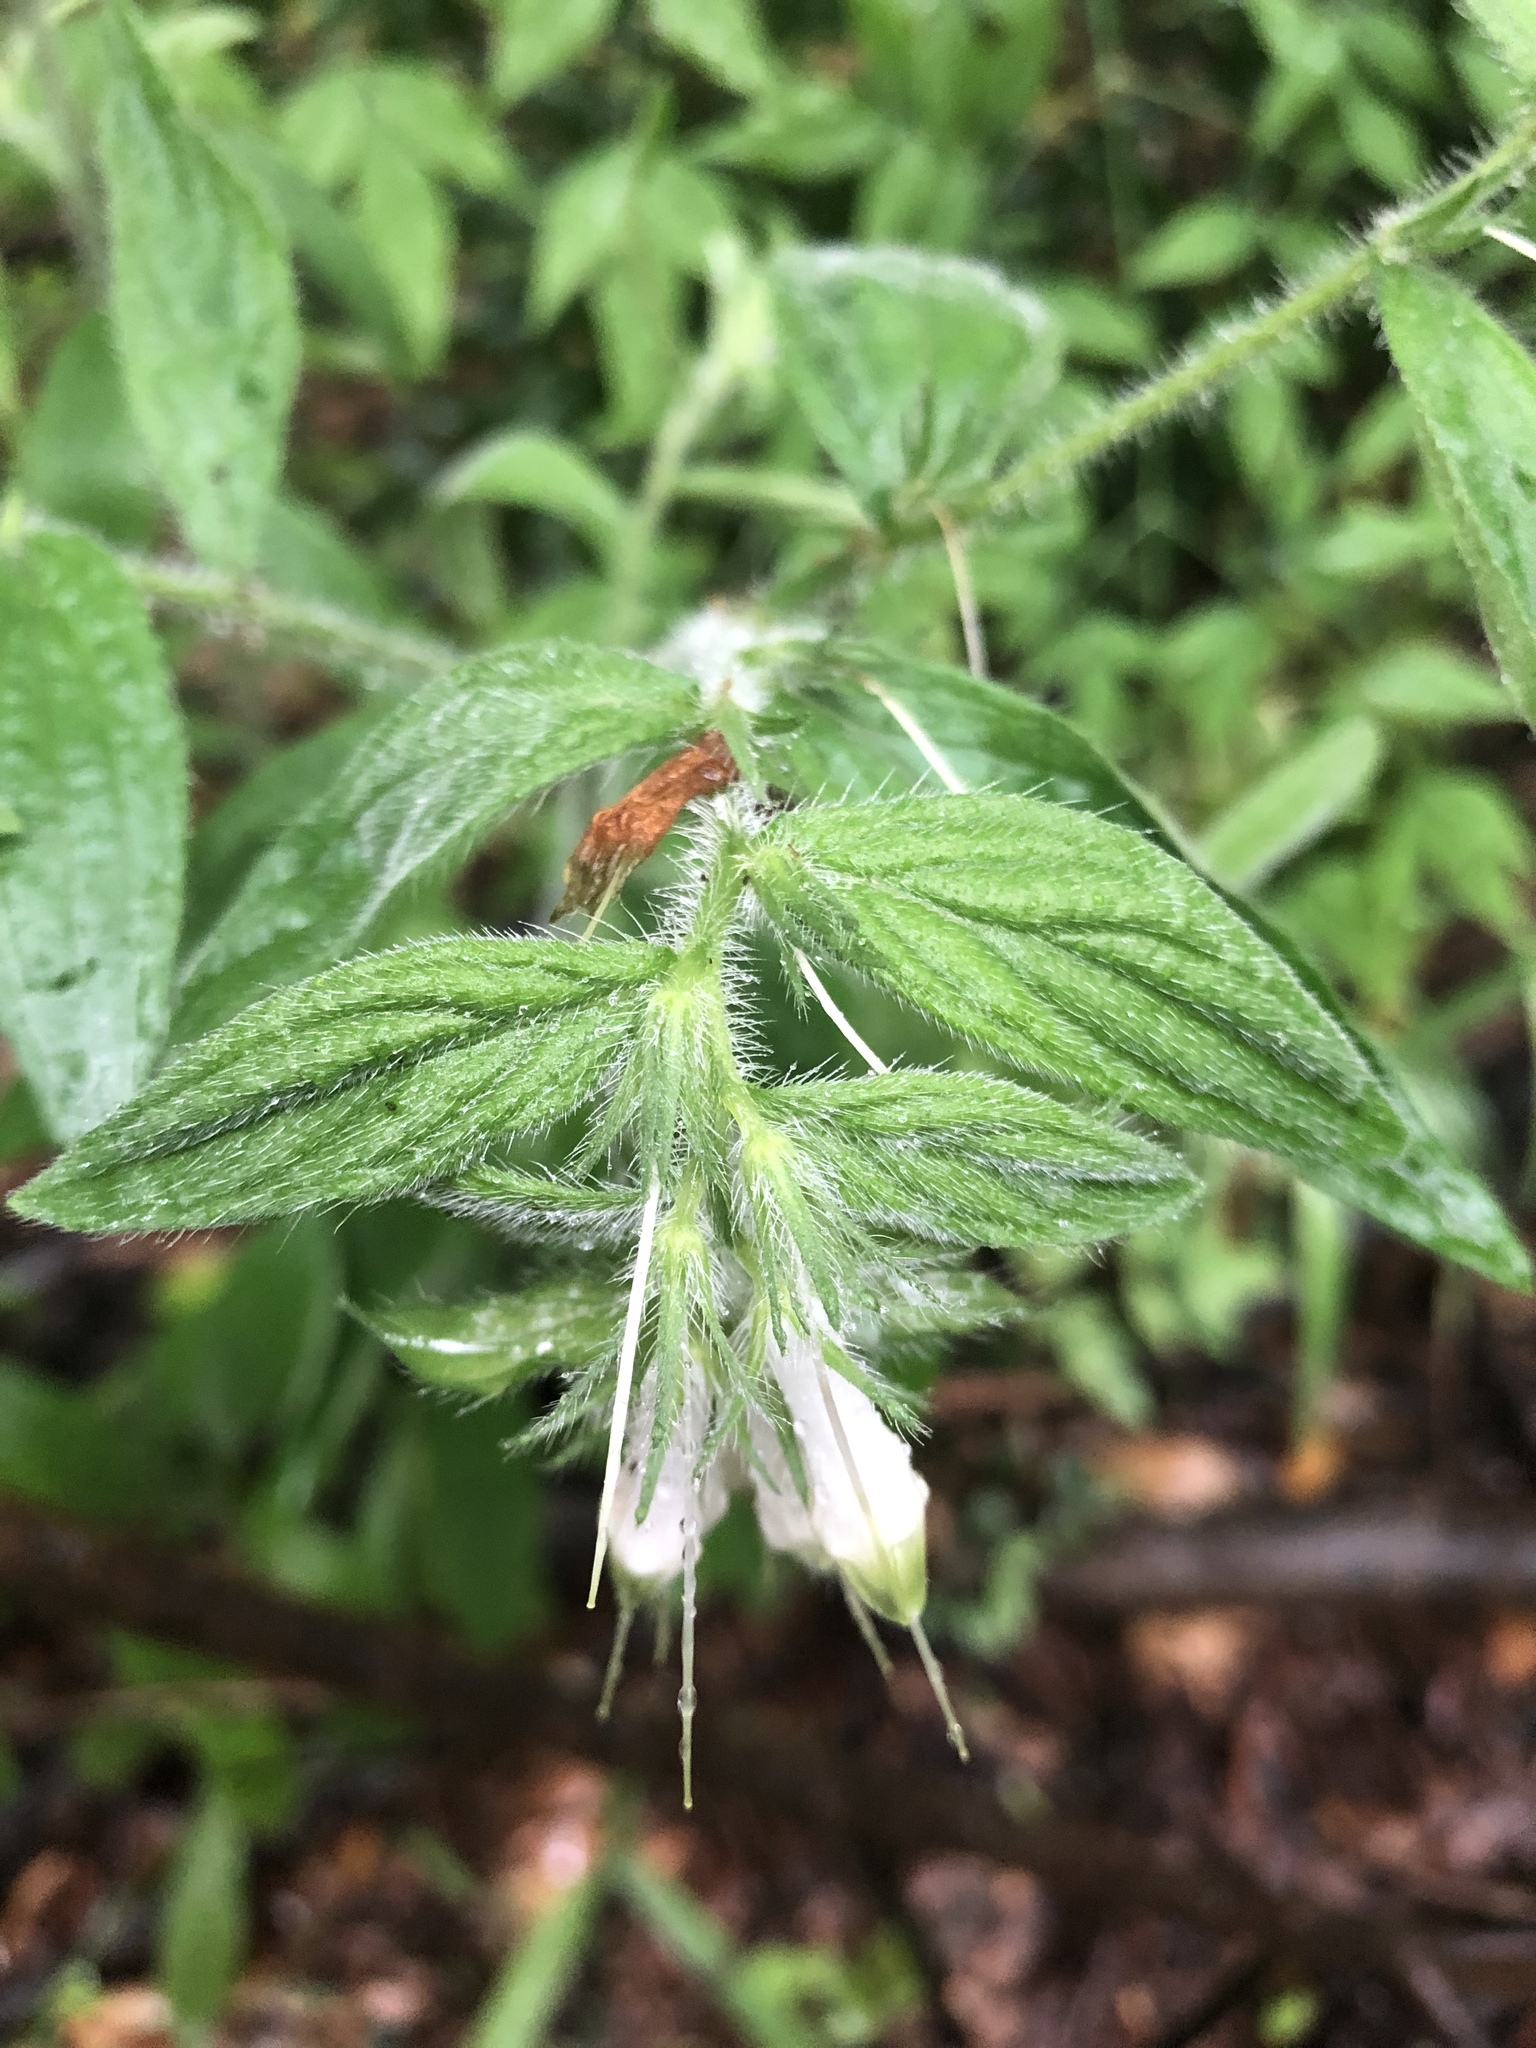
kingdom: Plantae
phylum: Tracheophyta
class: Magnoliopsida
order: Boraginales
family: Boraginaceae
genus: Lithospermum
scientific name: Lithospermum caroliniense
